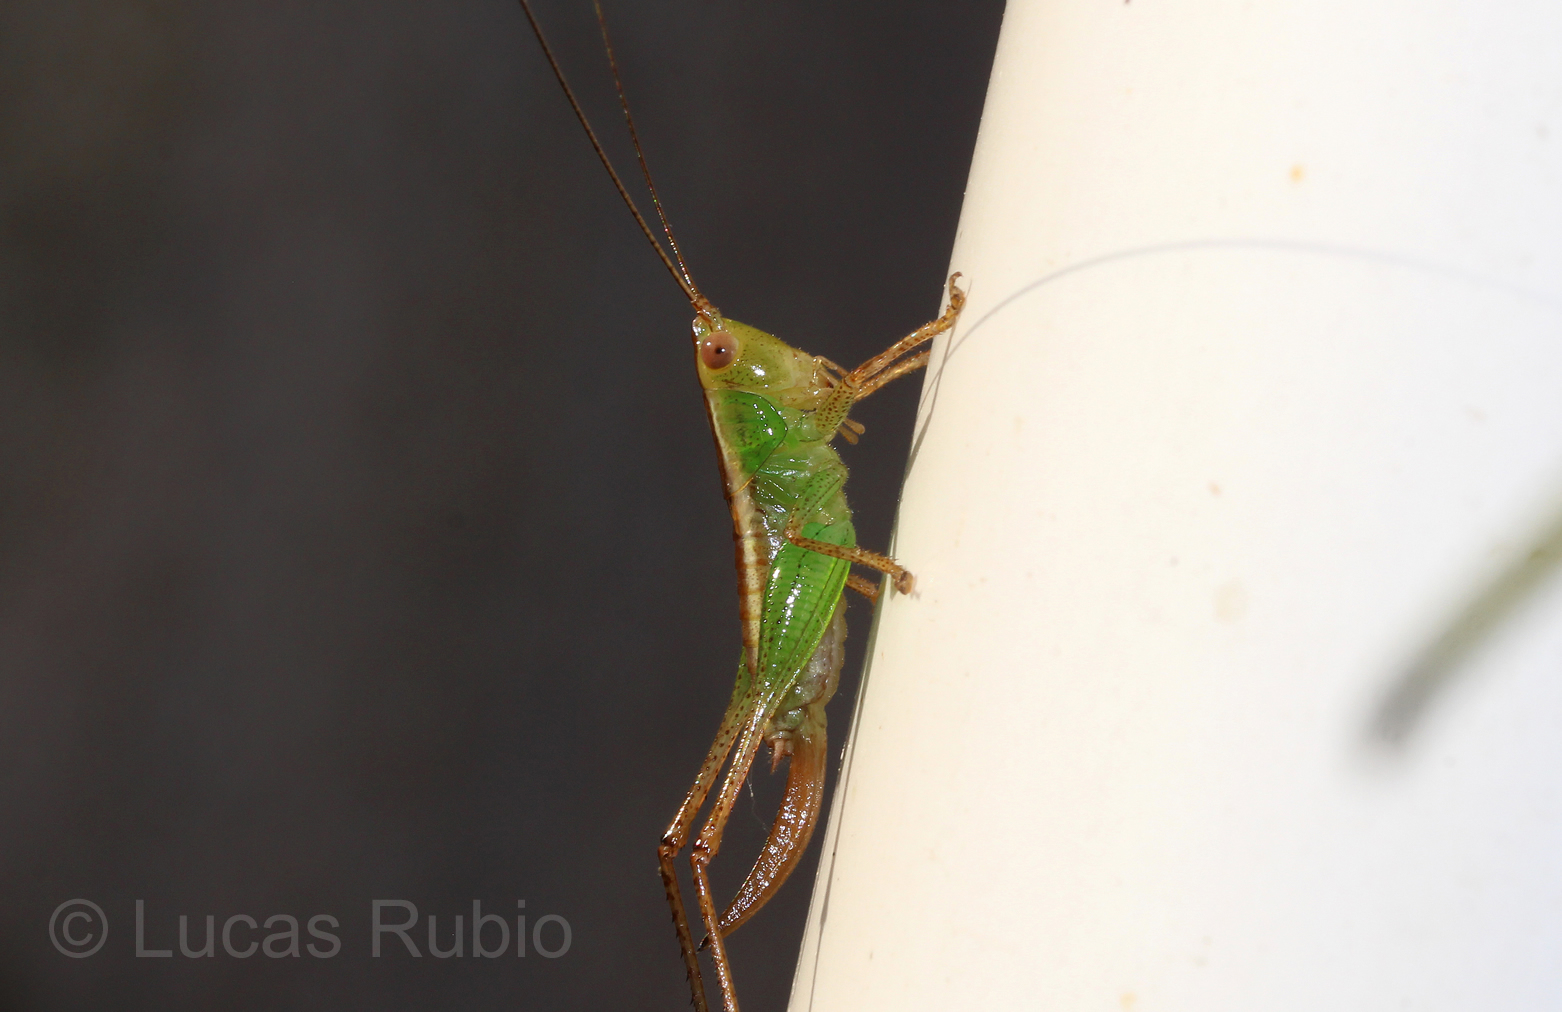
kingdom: Animalia
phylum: Arthropoda
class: Insecta
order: Orthoptera
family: Tettigoniidae
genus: Conocephalus
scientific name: Conocephalus cinnamonifrons
